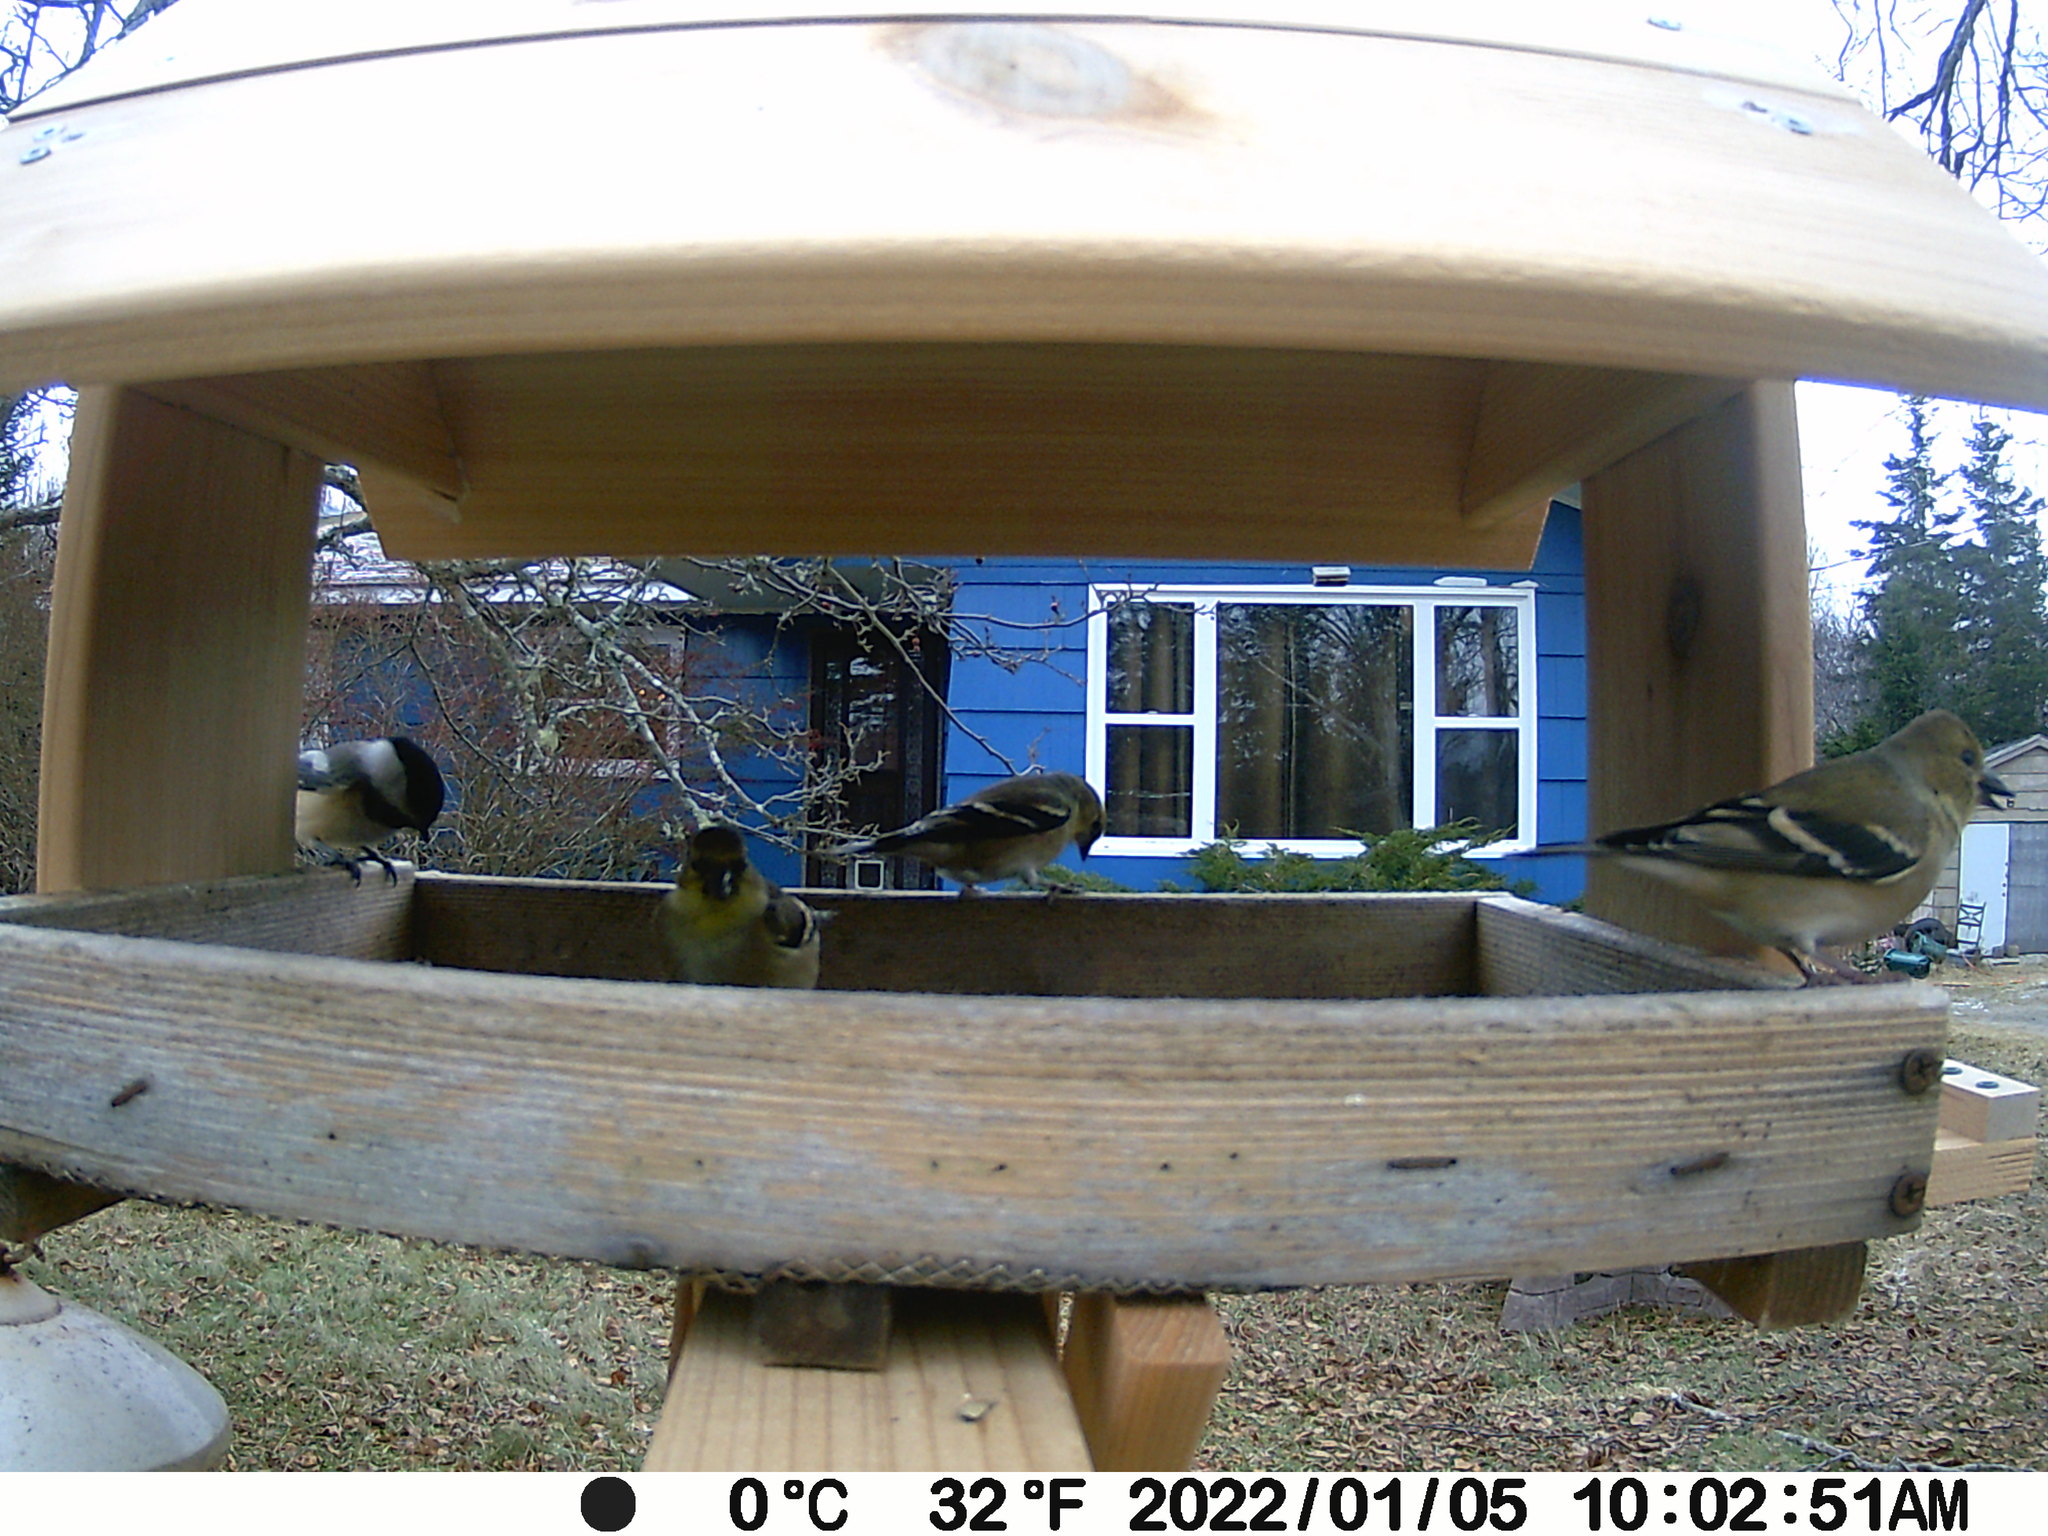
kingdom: Animalia
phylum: Chordata
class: Aves
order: Passeriformes
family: Fringillidae
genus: Spinus
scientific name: Spinus tristis
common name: American goldfinch
